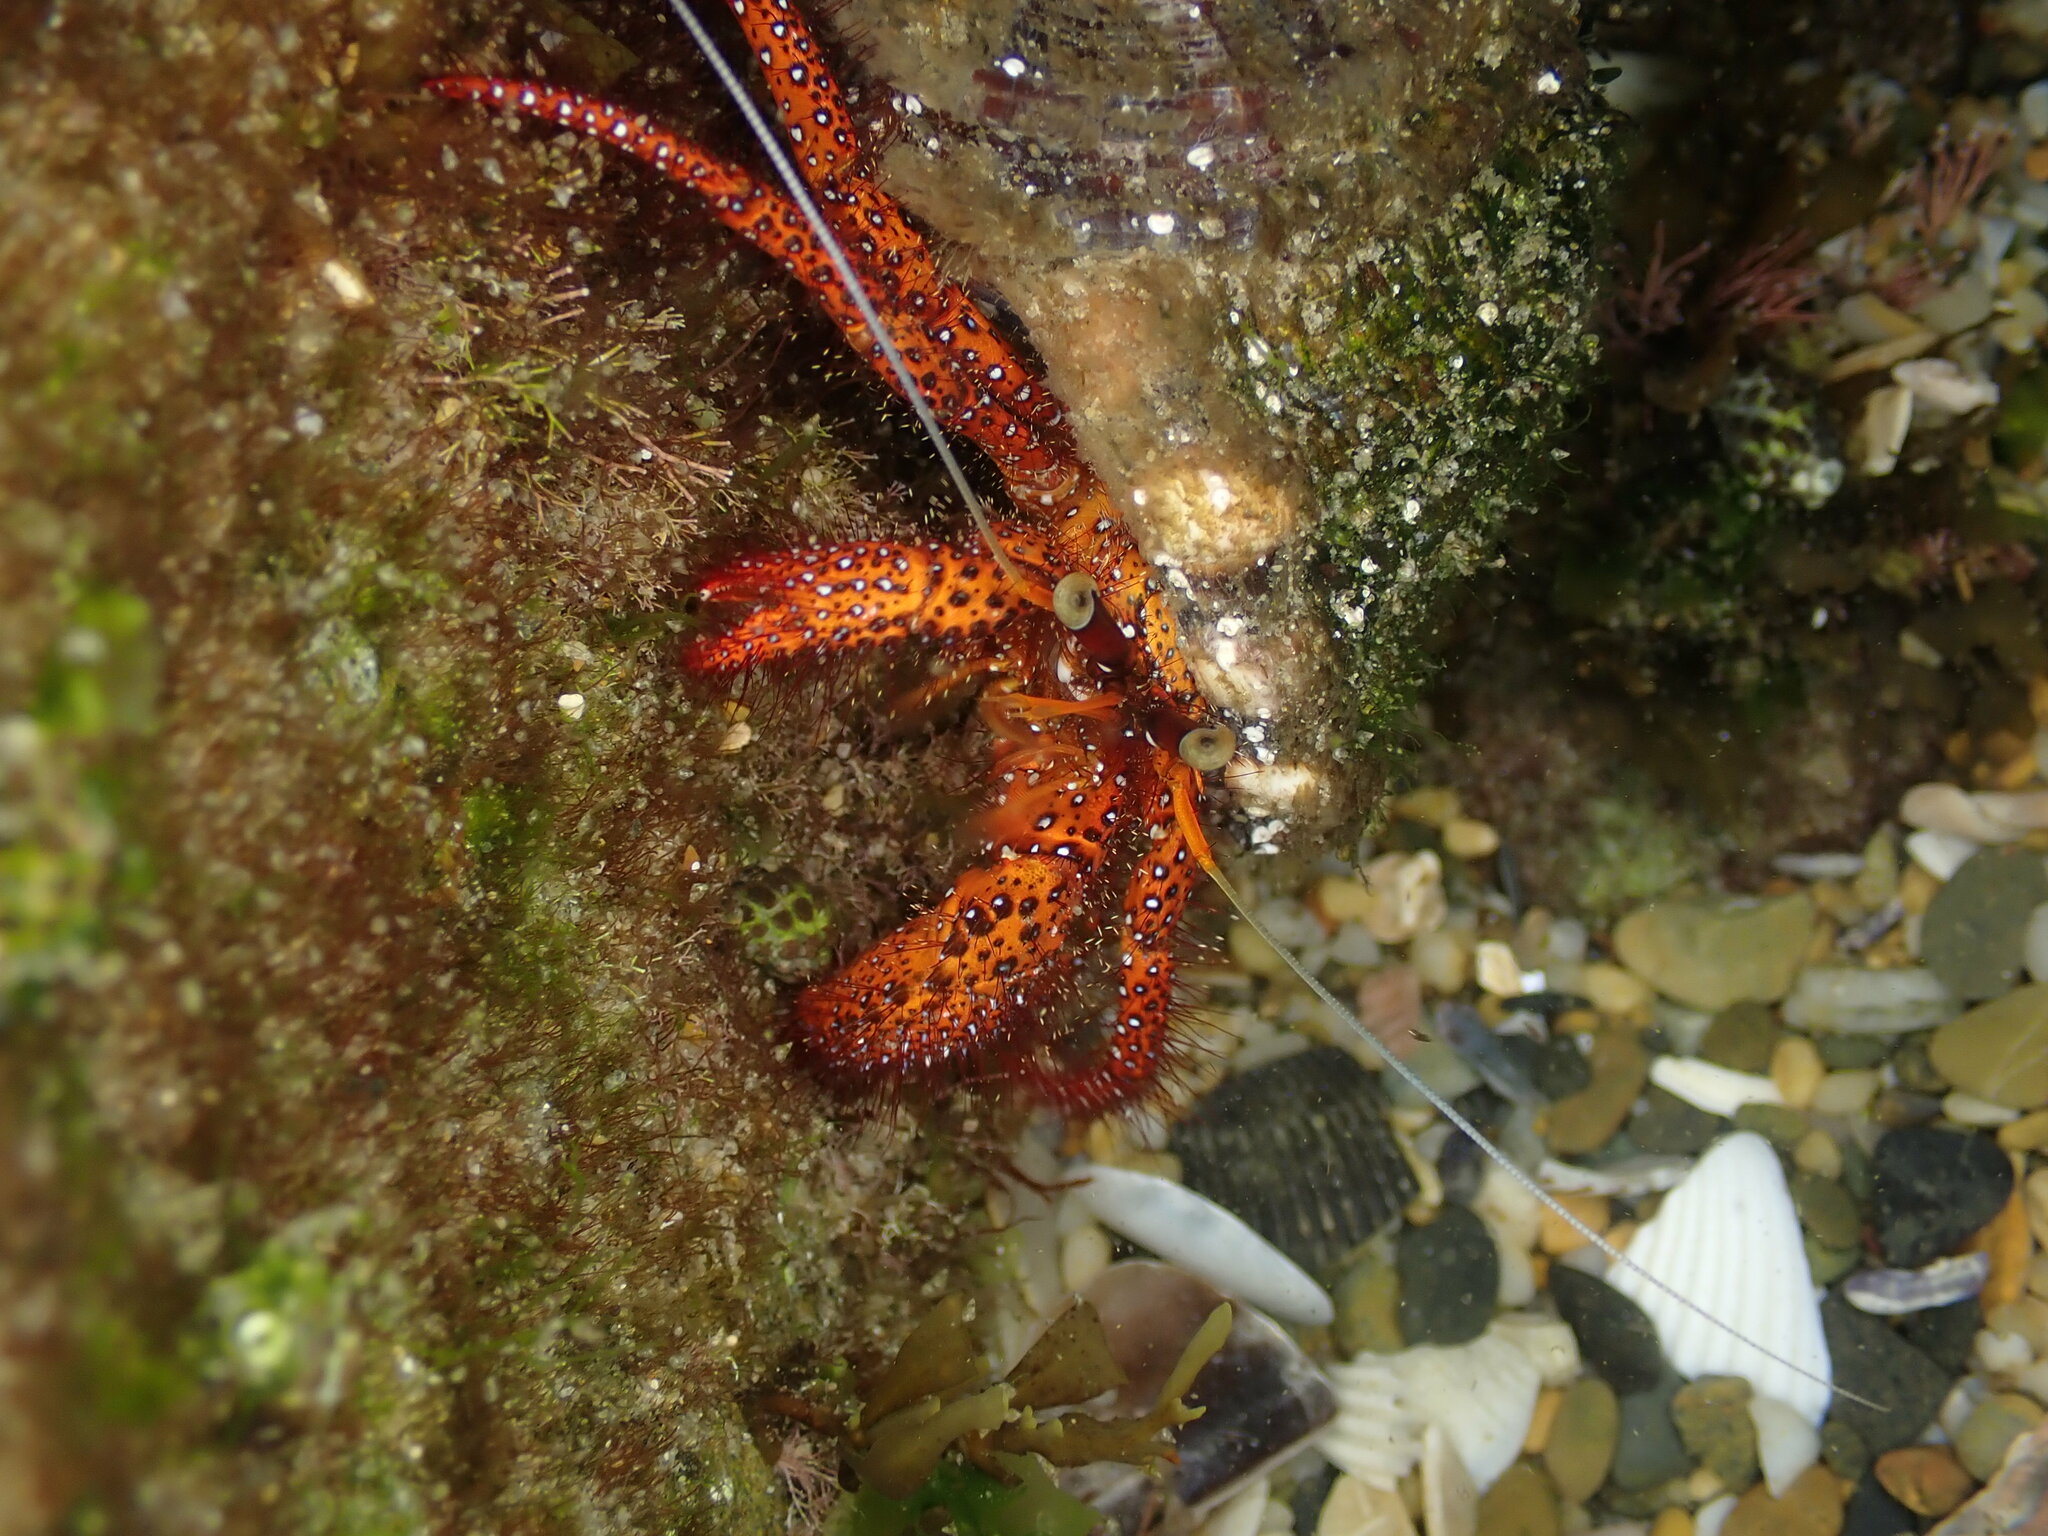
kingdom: Animalia
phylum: Arthropoda
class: Malacostraca
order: Decapoda
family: Diogenidae
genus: Dardanus
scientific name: Dardanus megistos
